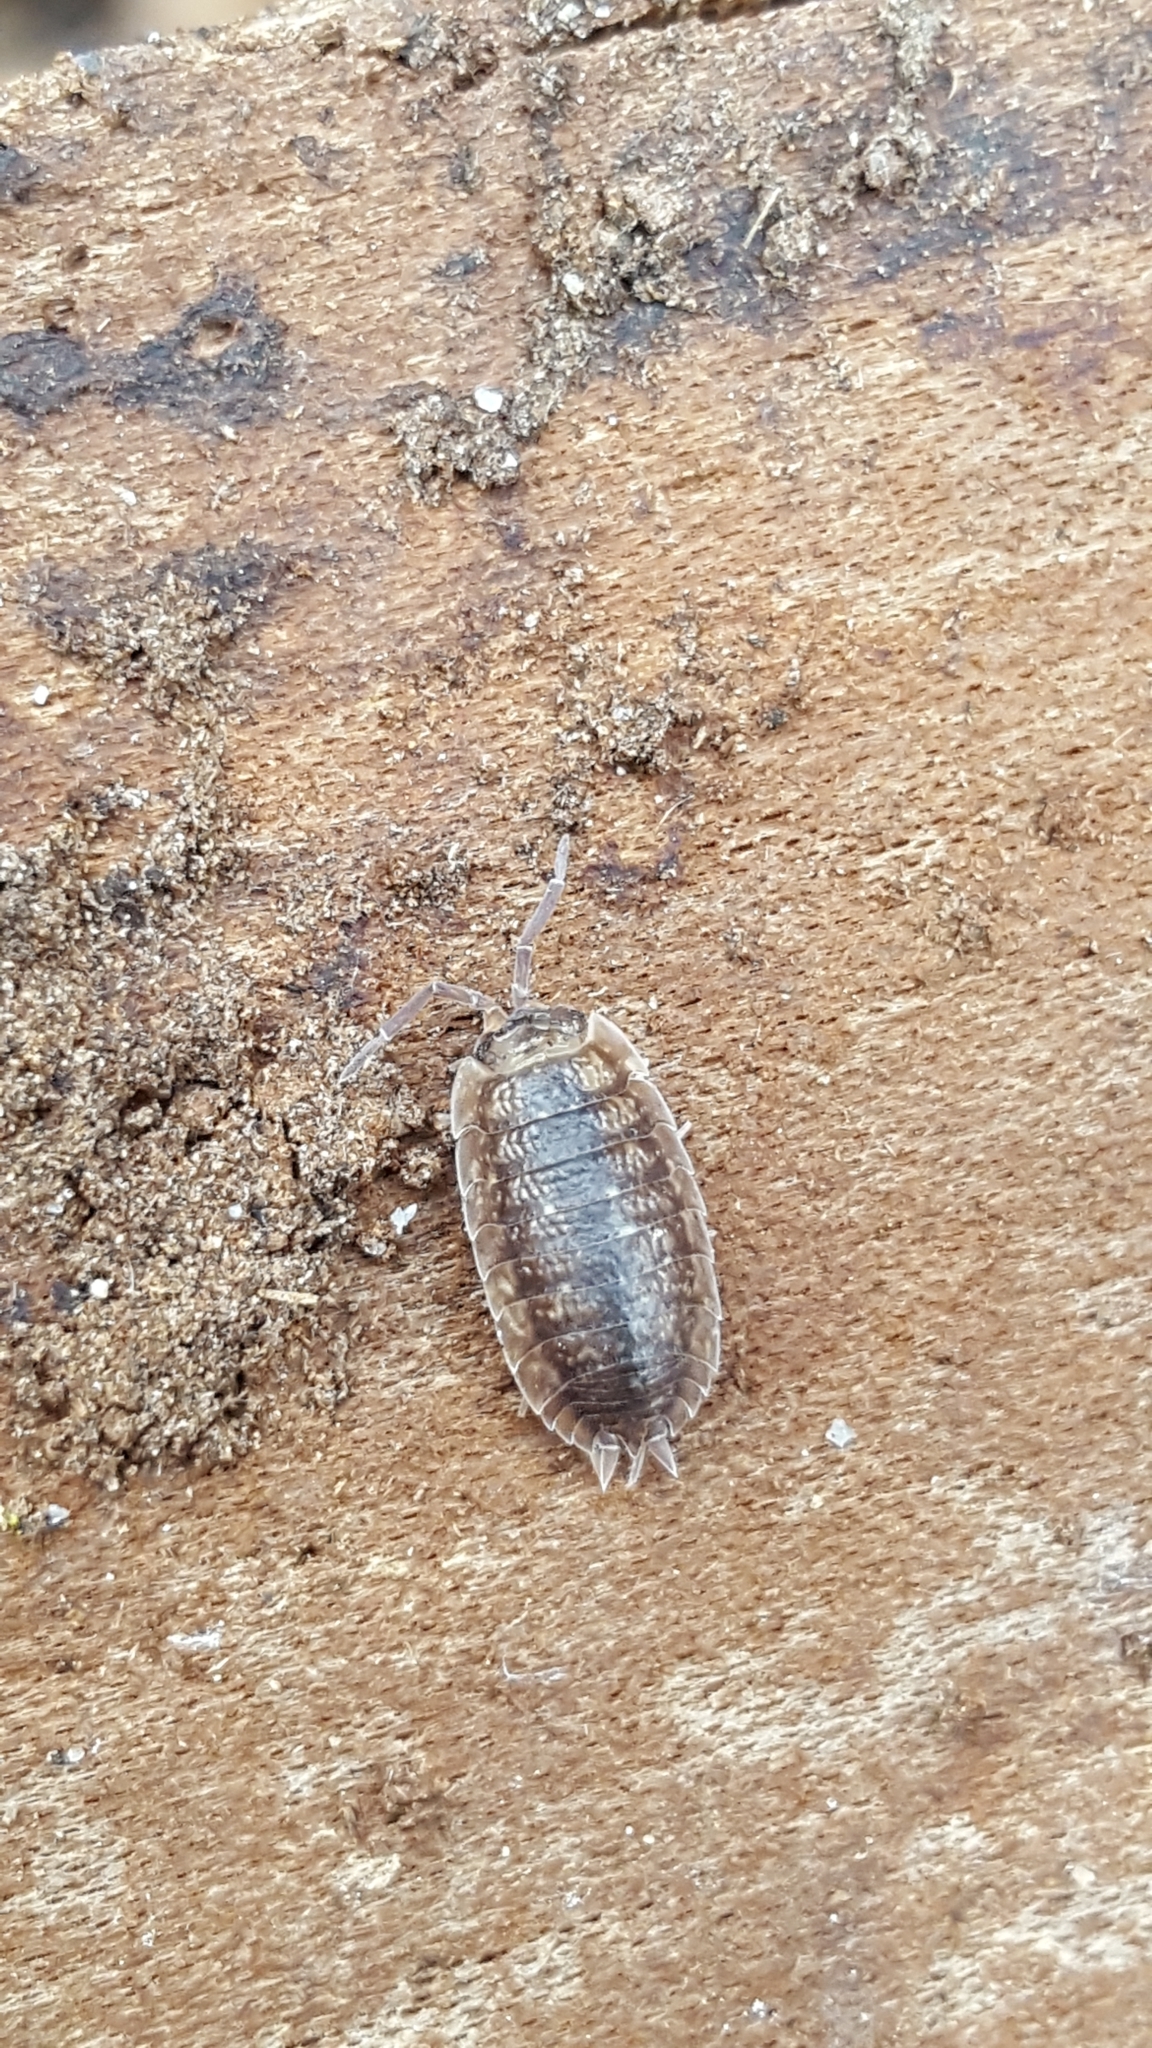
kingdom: Animalia
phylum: Arthropoda
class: Malacostraca
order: Isopoda
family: Porcellionidae
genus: Porcellio
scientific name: Porcellio scaber
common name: Common rough woodlouse
